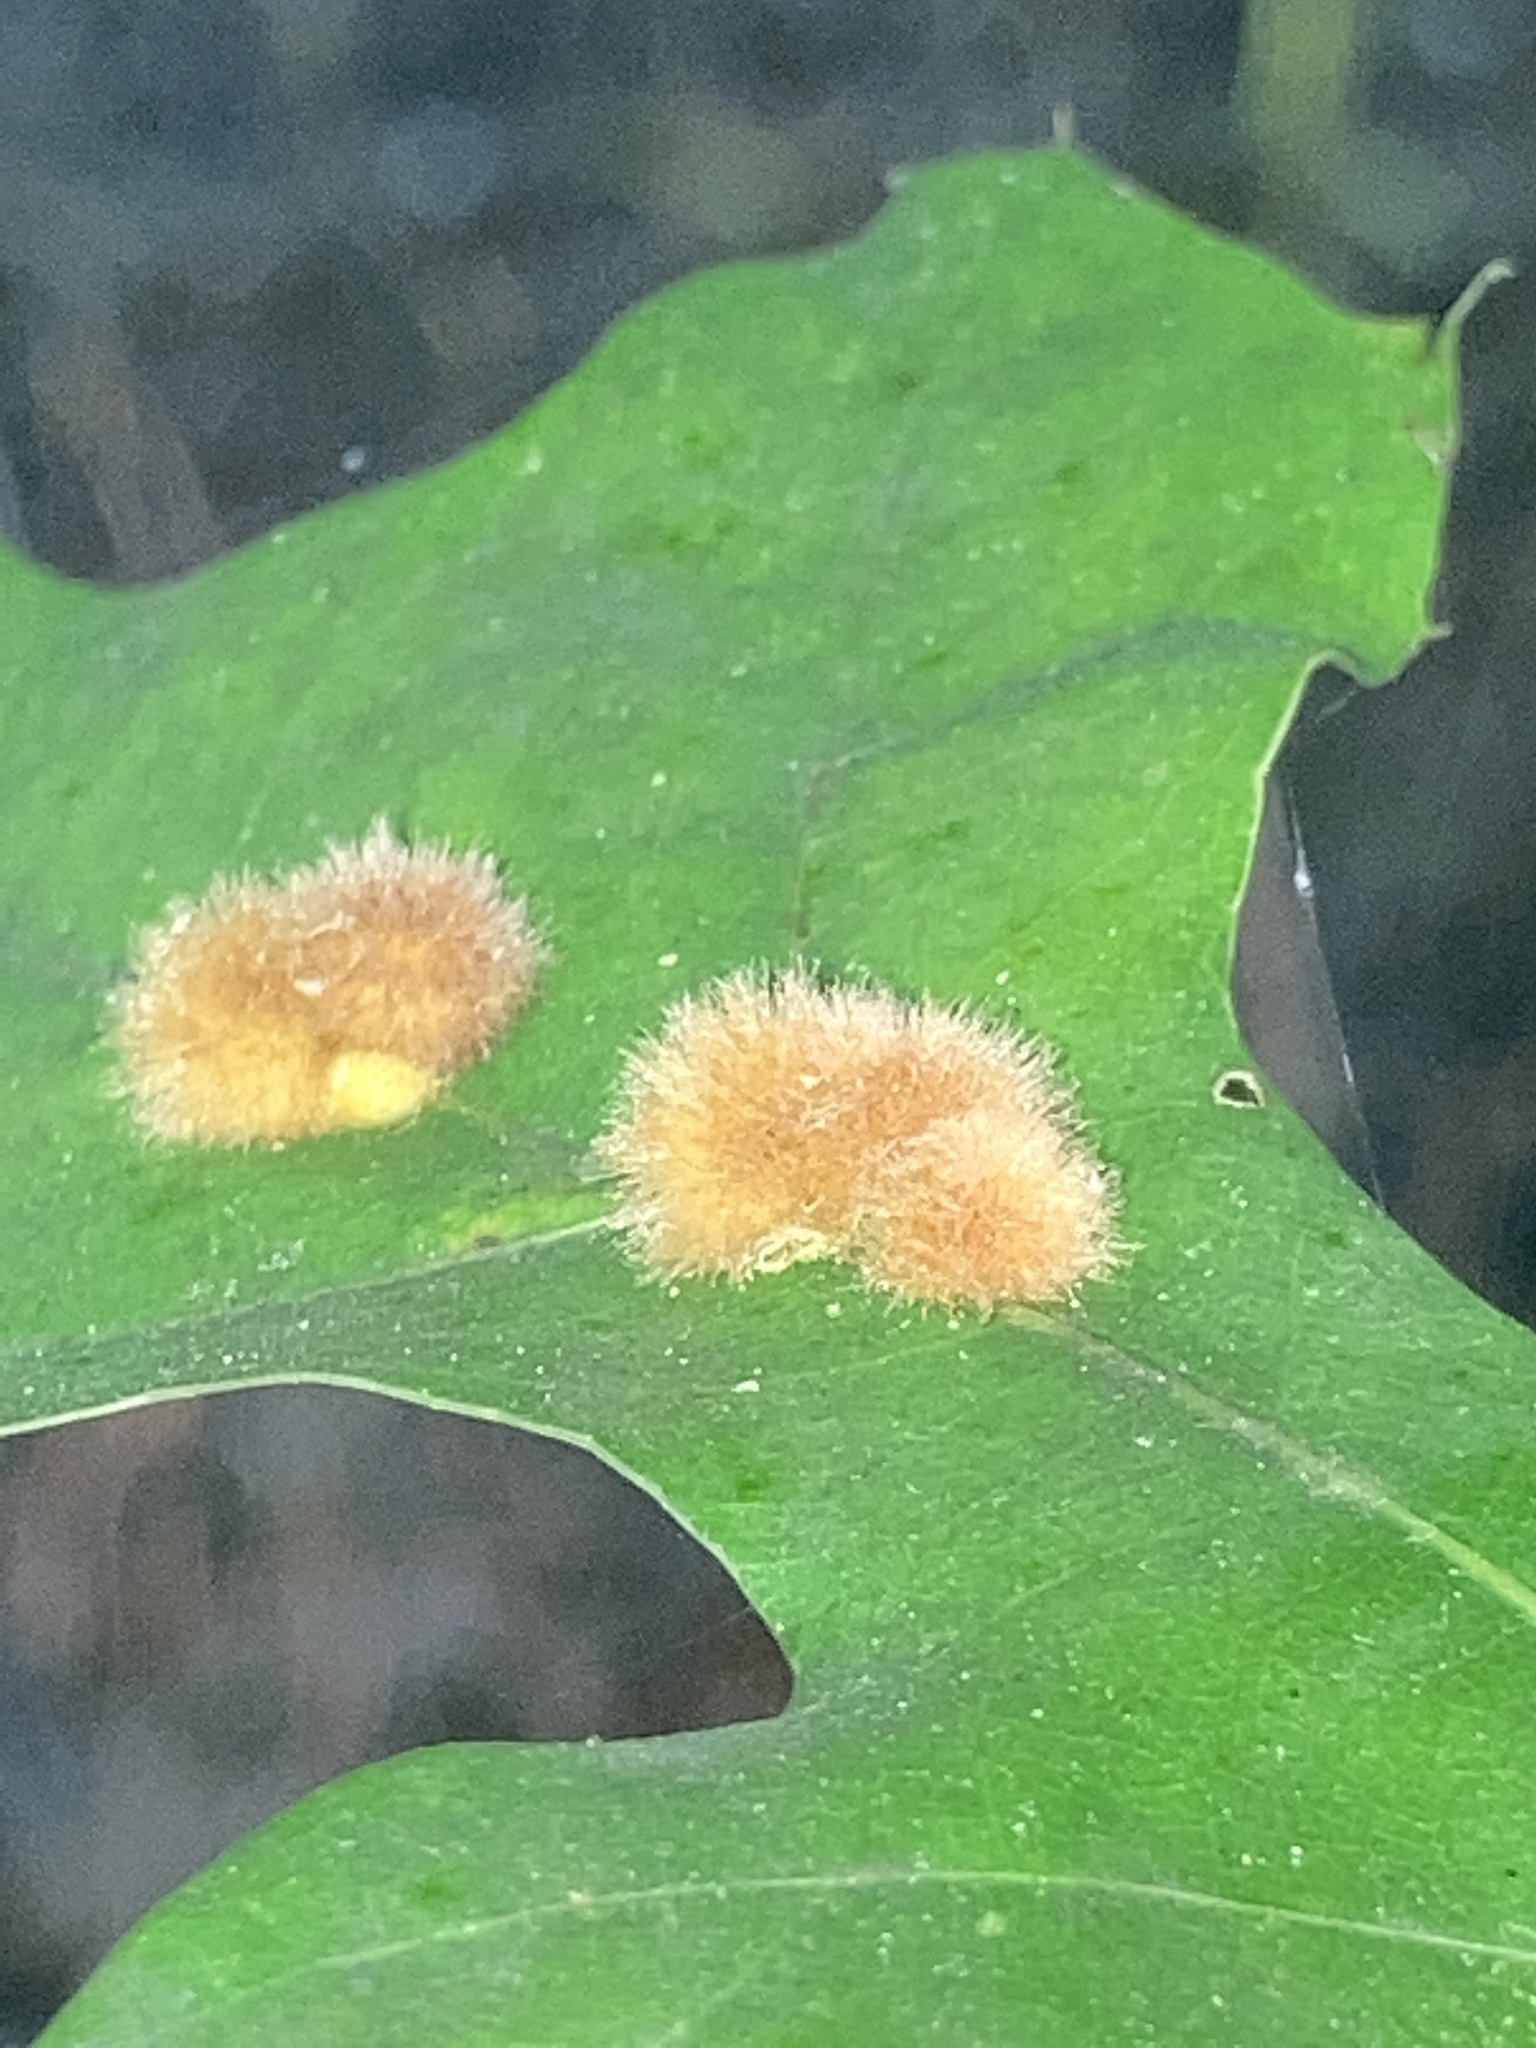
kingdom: Animalia
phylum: Arthropoda
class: Insecta
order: Hymenoptera
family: Cynipidae
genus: Callirhytis
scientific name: Callirhytis
